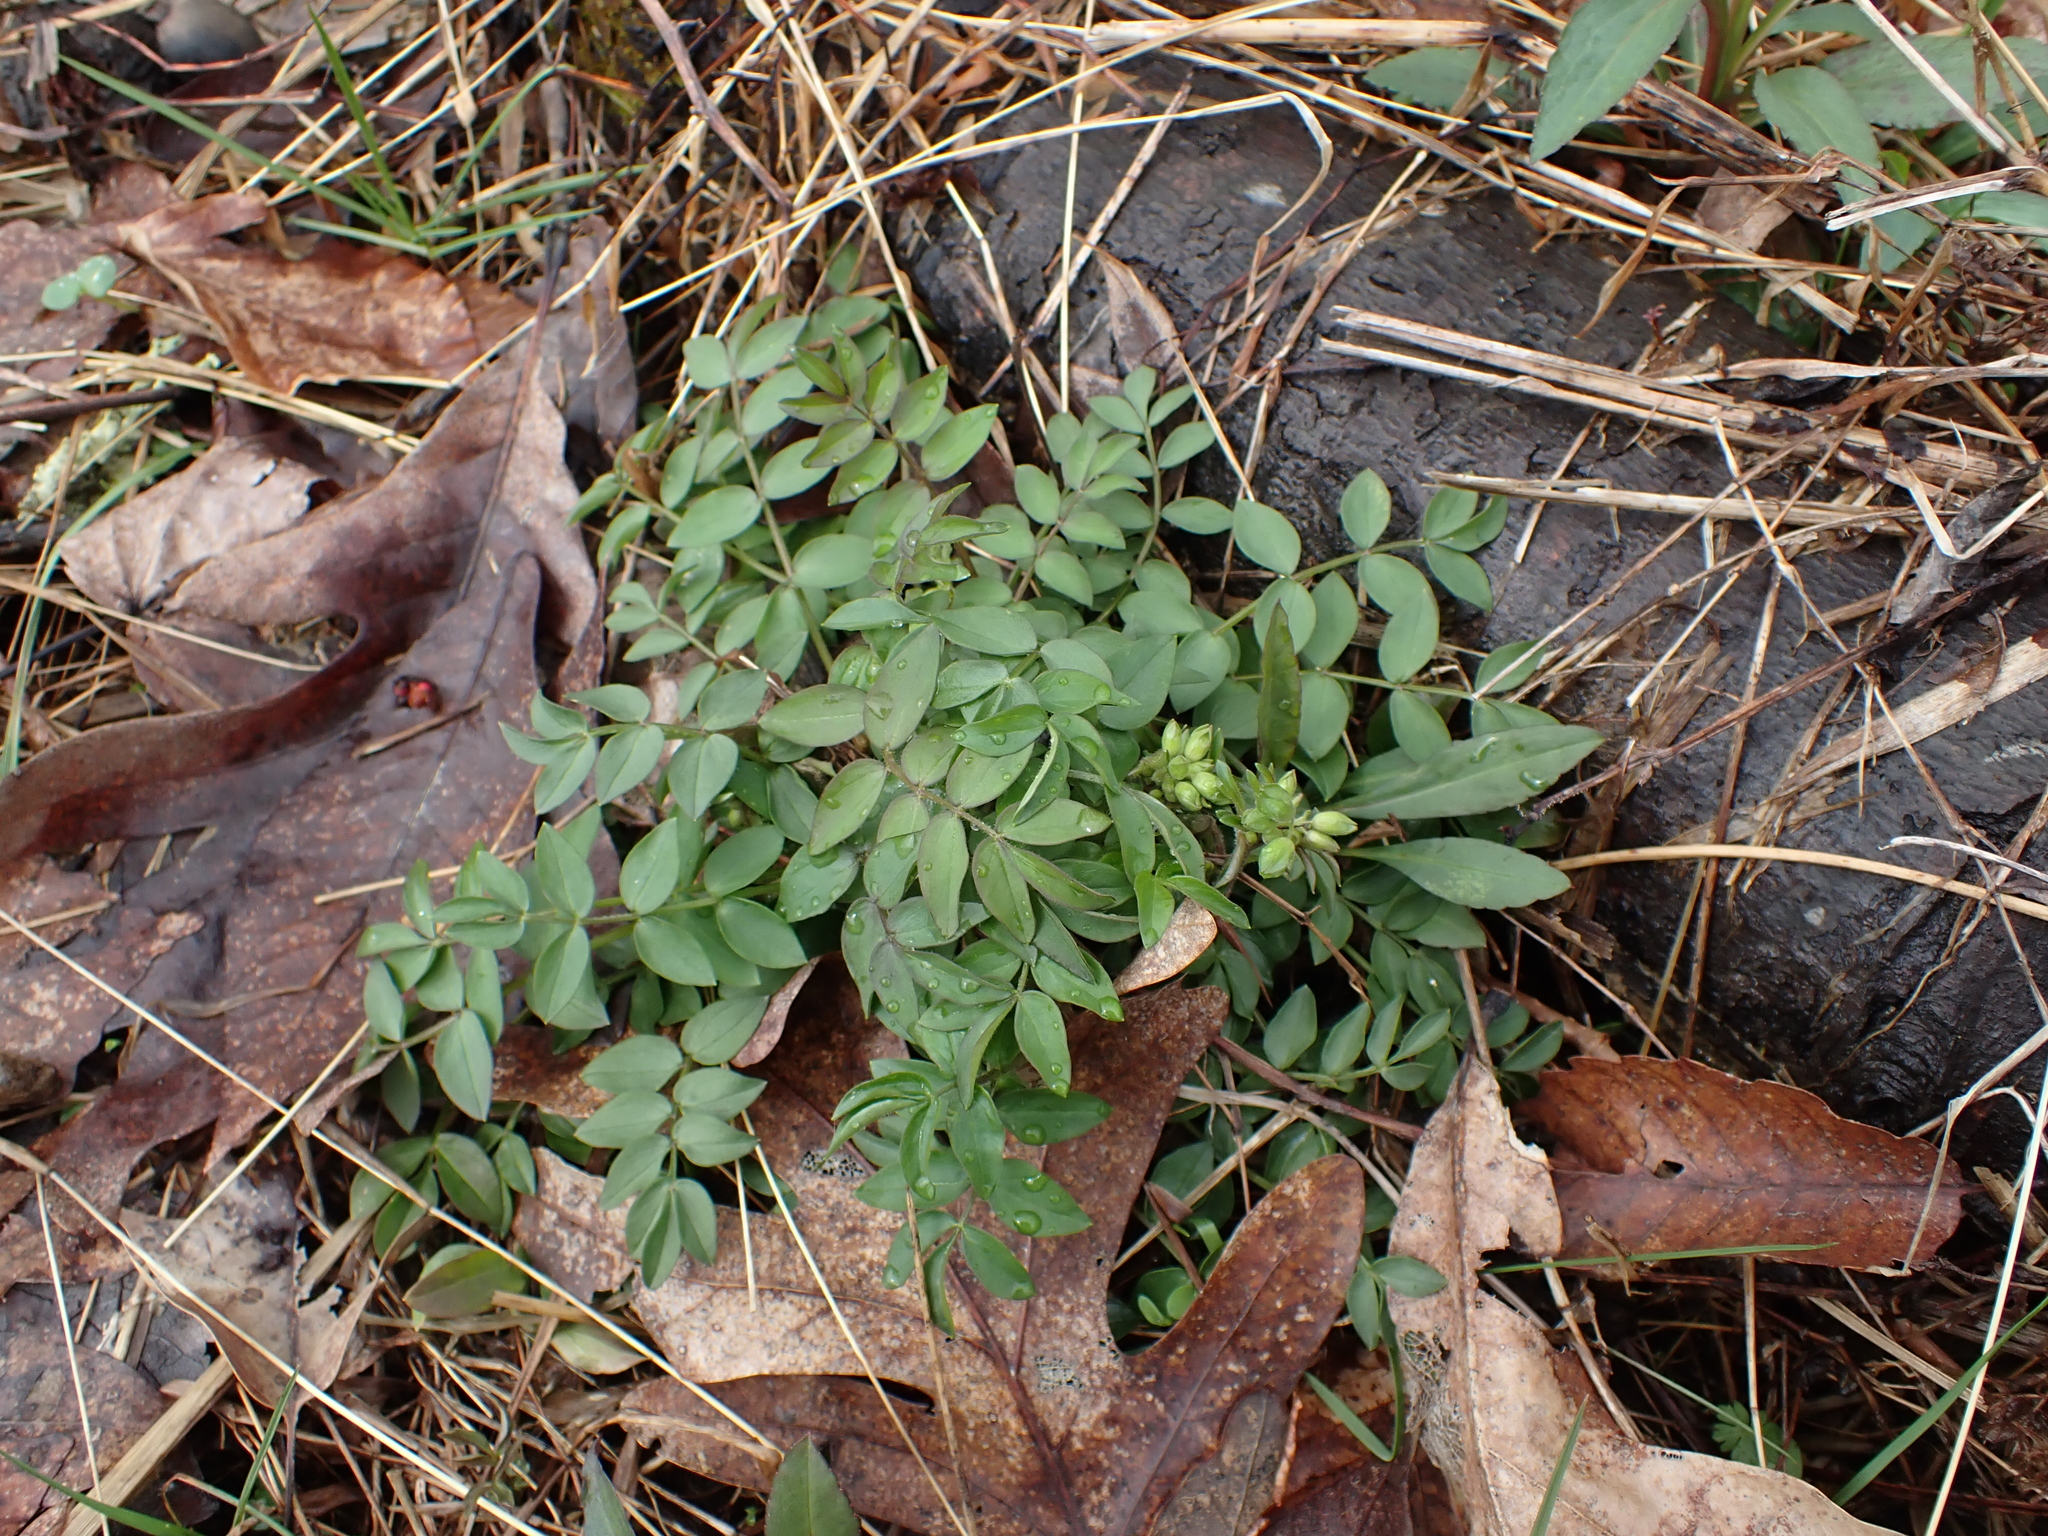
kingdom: Plantae
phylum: Tracheophyta
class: Magnoliopsida
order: Ericales
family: Polemoniaceae
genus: Polemonium
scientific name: Polemonium reptans
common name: Creeping jacob's-ladder
